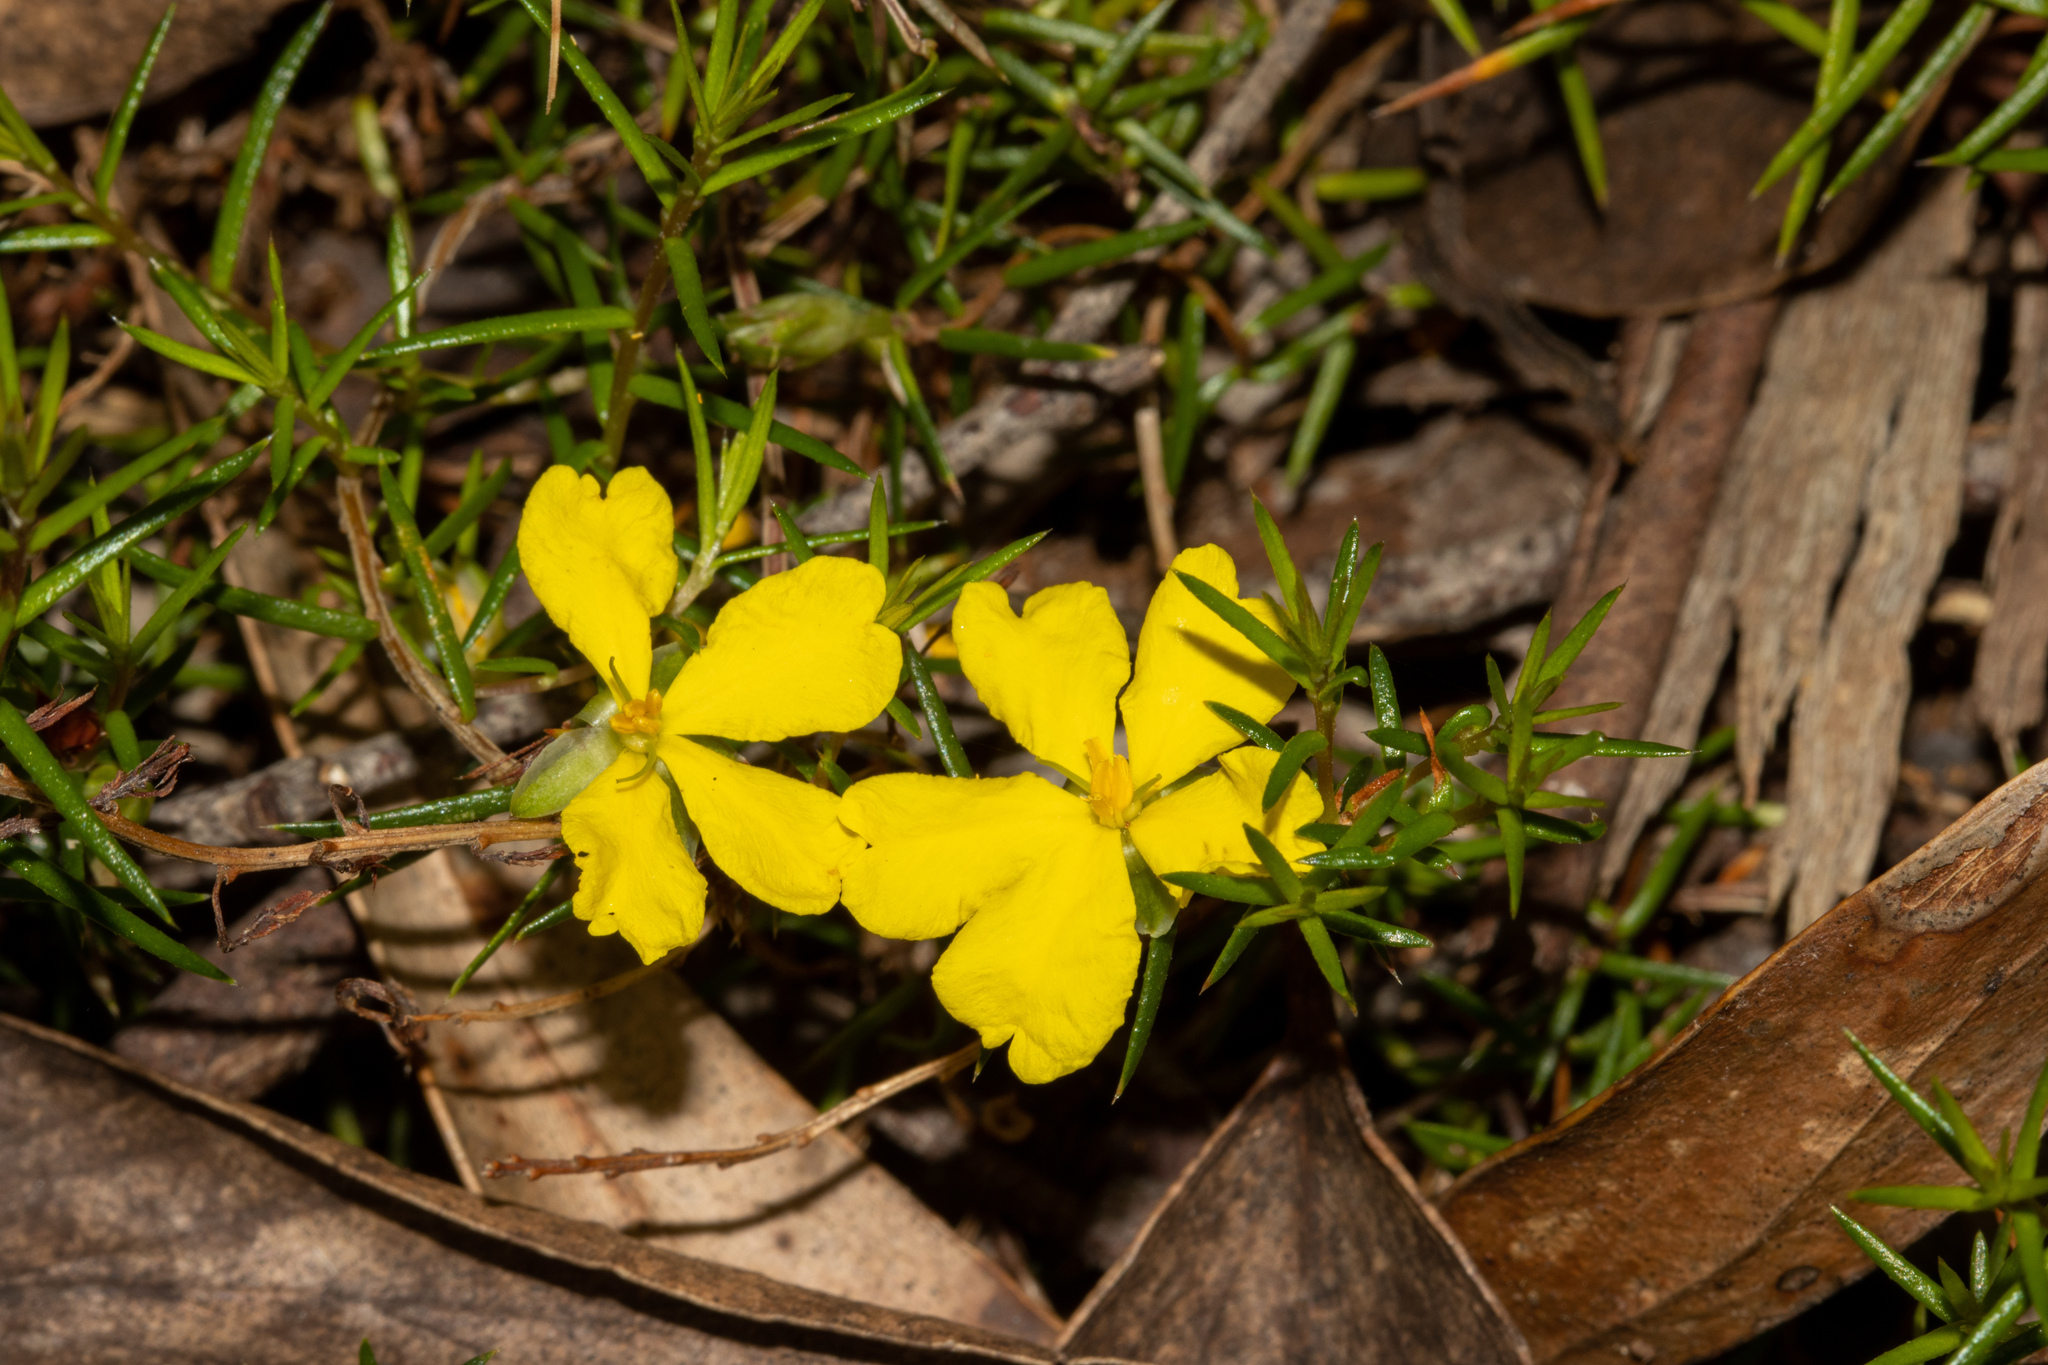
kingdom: Plantae
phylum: Tracheophyta
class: Magnoliopsida
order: Dilleniales
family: Dilleniaceae
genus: Hibbertia
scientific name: Hibbertia exutiacies
